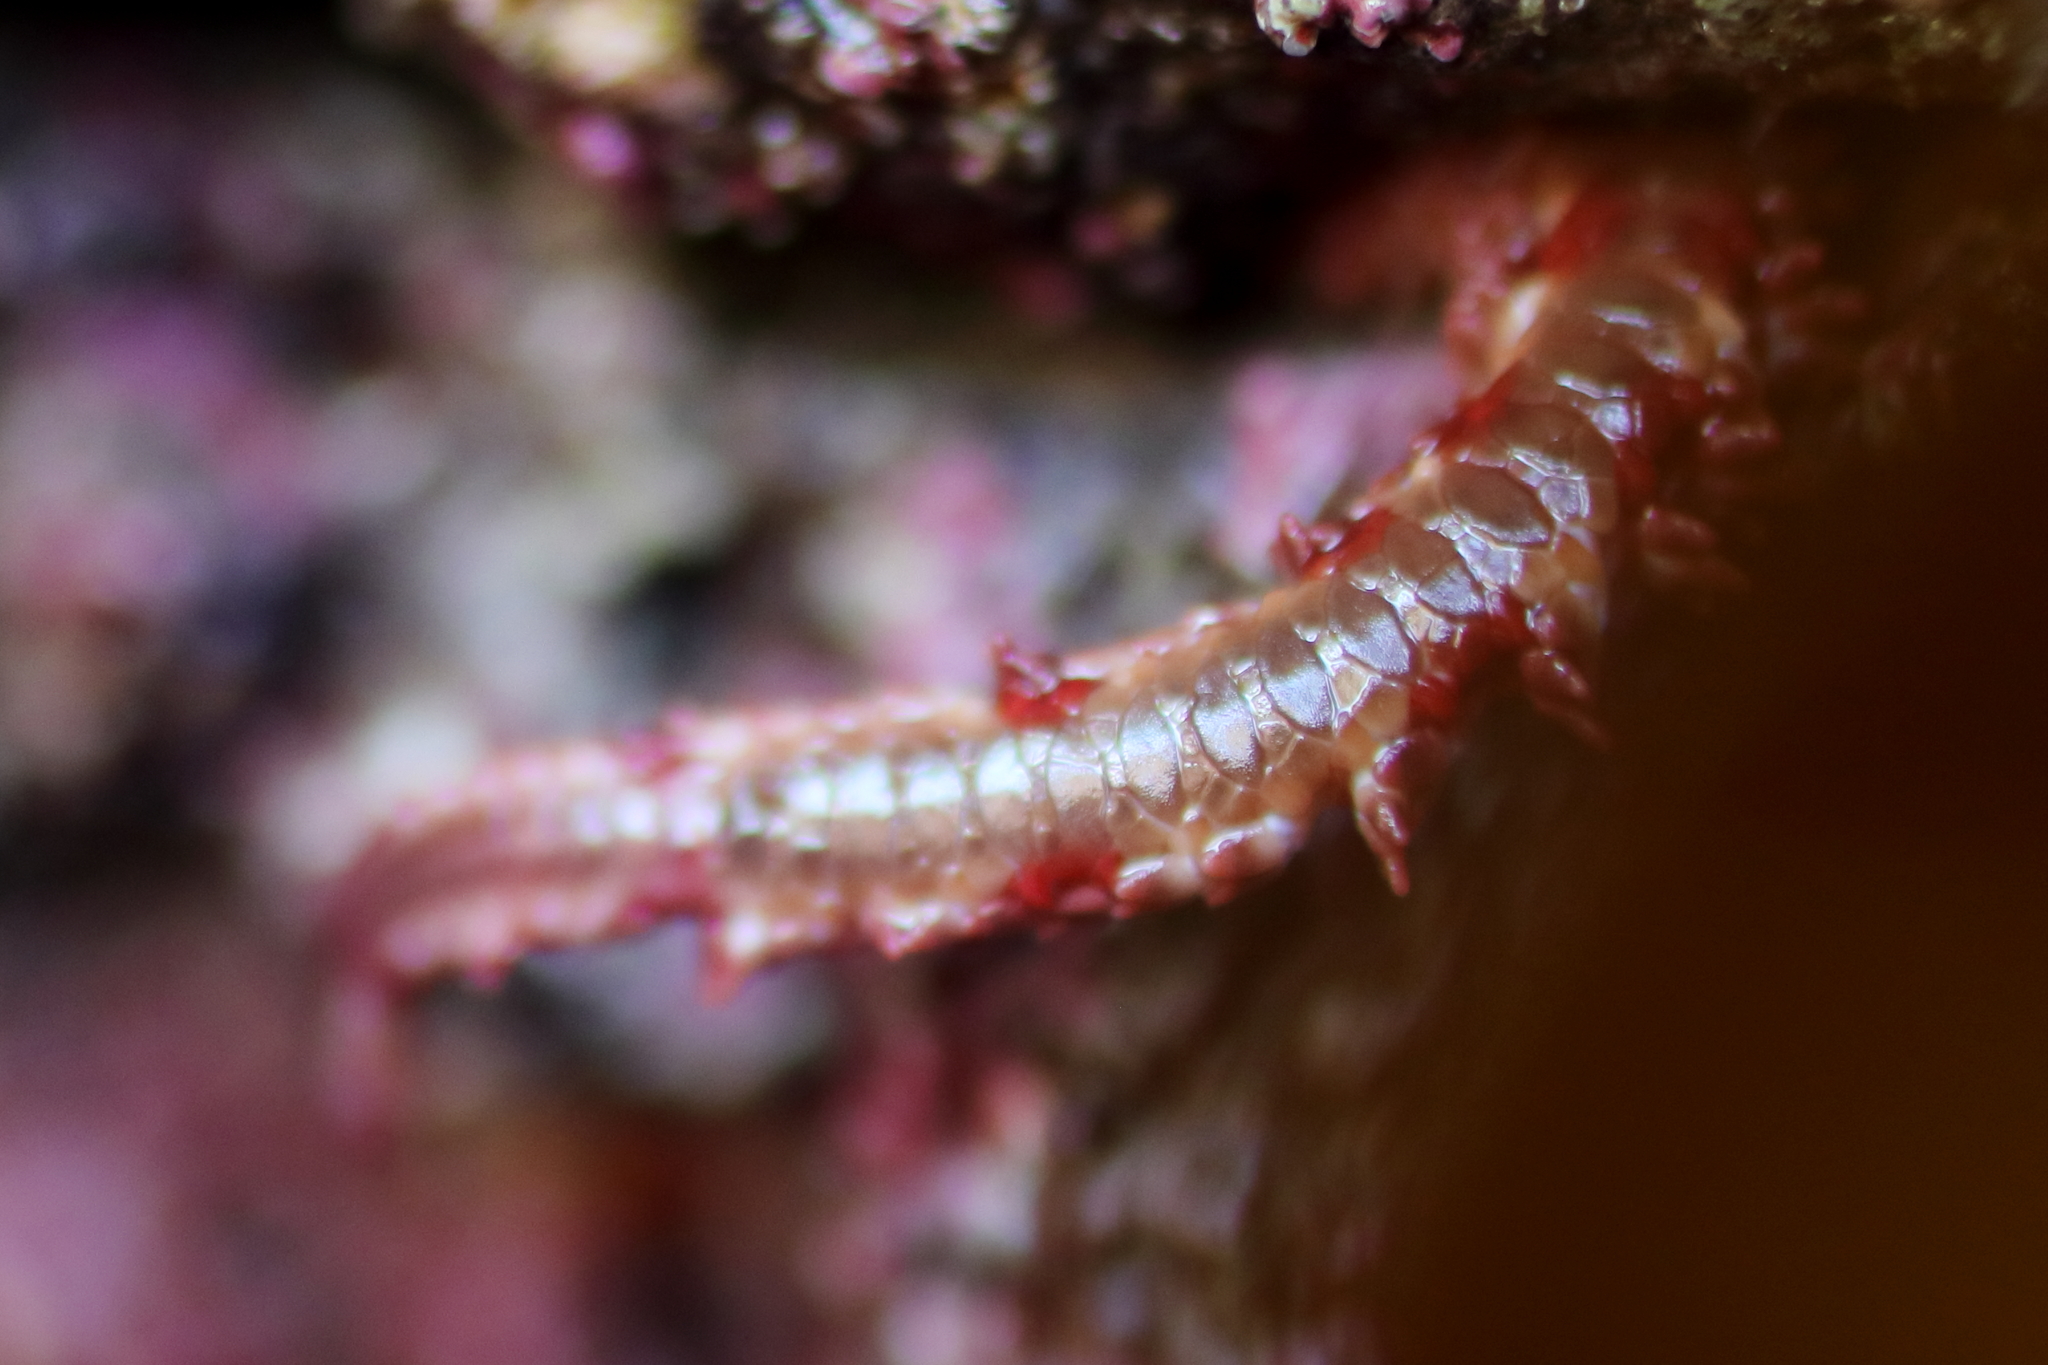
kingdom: Animalia
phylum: Echinodermata
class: Ophiuroidea
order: Amphilepidida
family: Ophiopholidae
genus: Ophiopholis
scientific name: Ophiopholis kennerlyi
